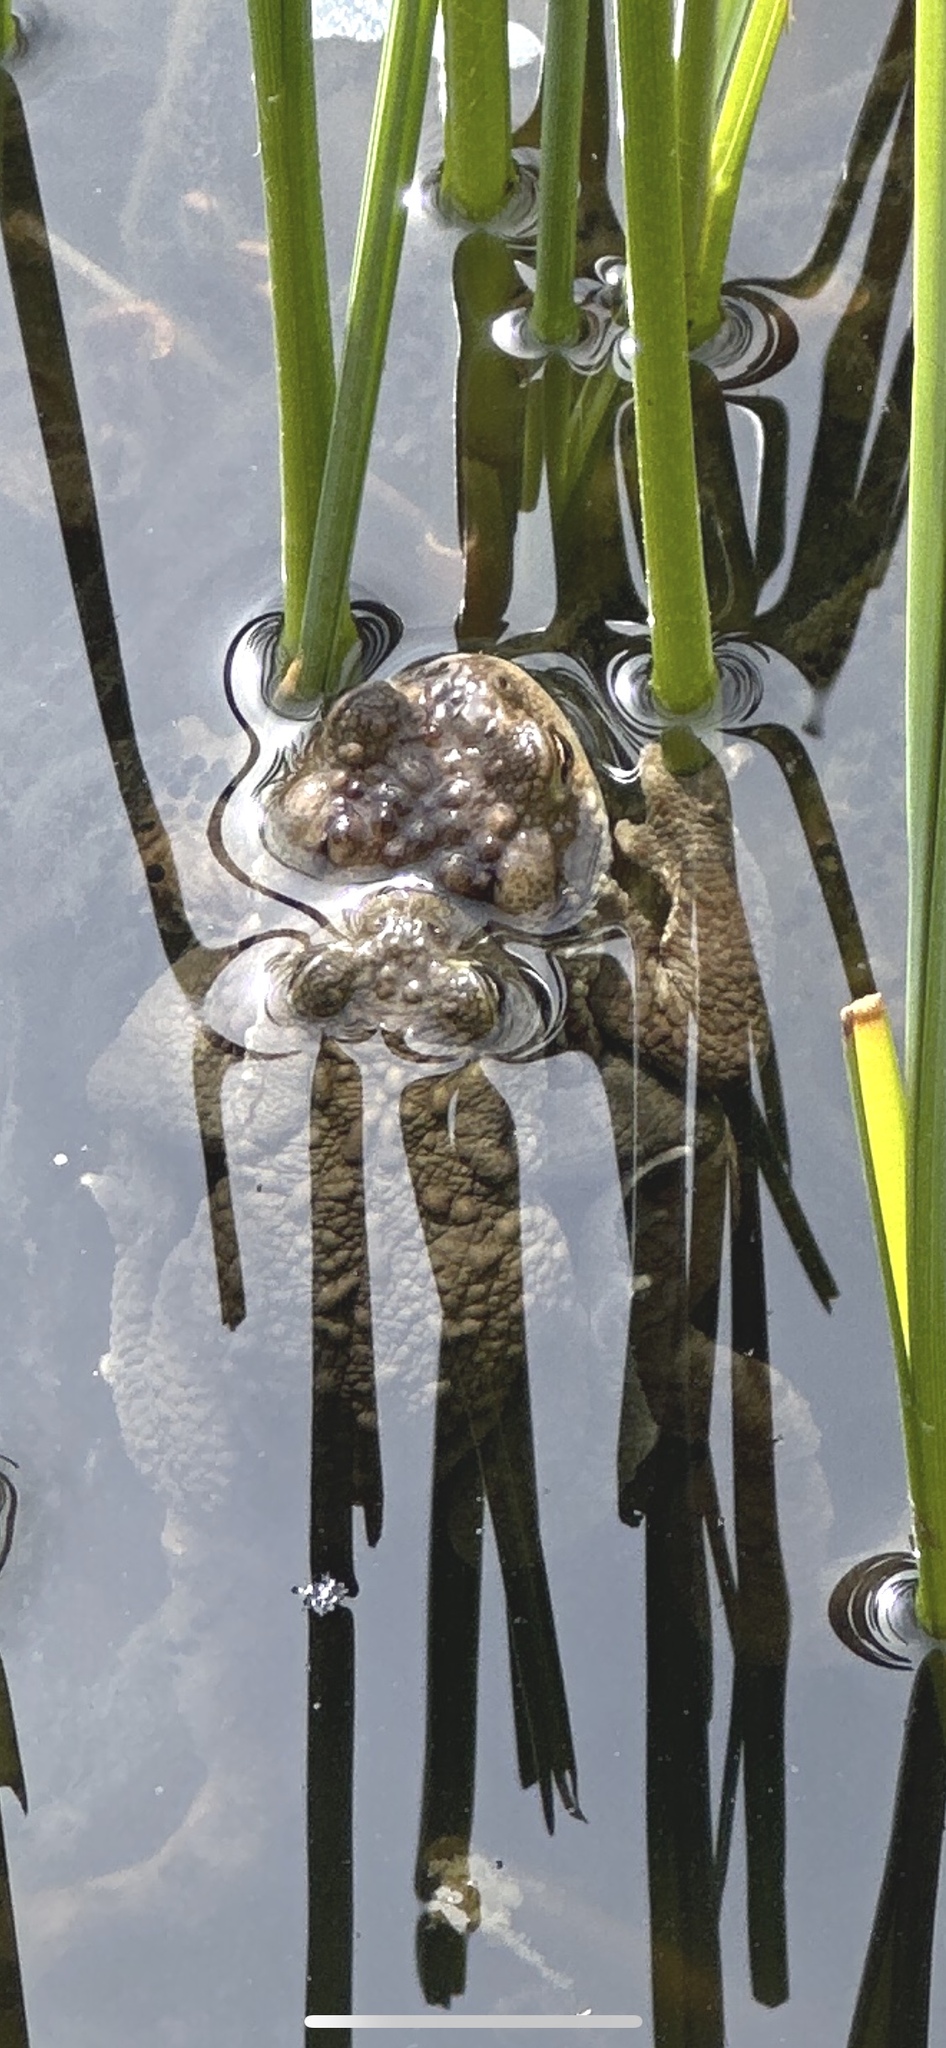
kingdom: Animalia
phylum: Chordata
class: Amphibia
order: Anura
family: Bufonidae
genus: Bufo
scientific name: Bufo bufo
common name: Common toad
